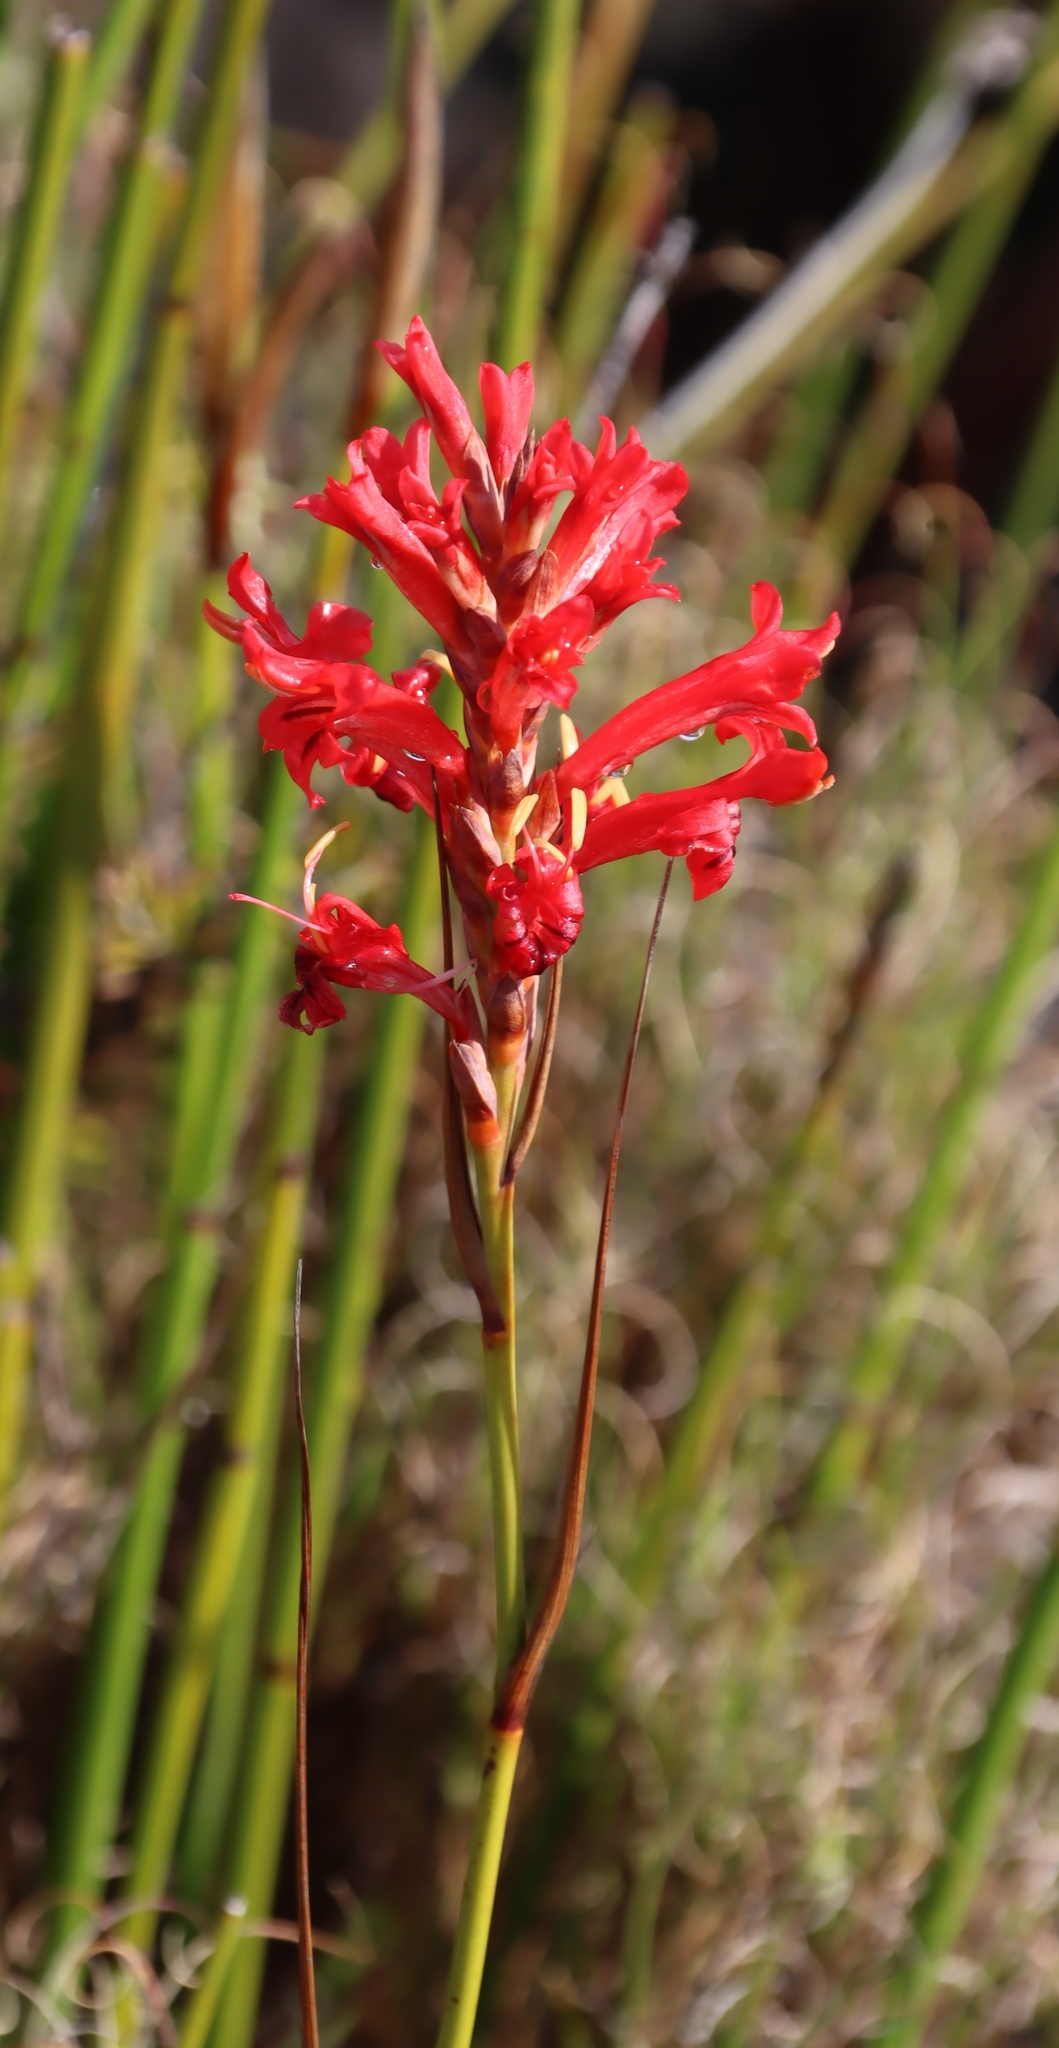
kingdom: Plantae
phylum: Tracheophyta
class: Liliopsida
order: Asparagales
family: Iridaceae
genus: Tritoniopsis
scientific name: Tritoniopsis triticea
